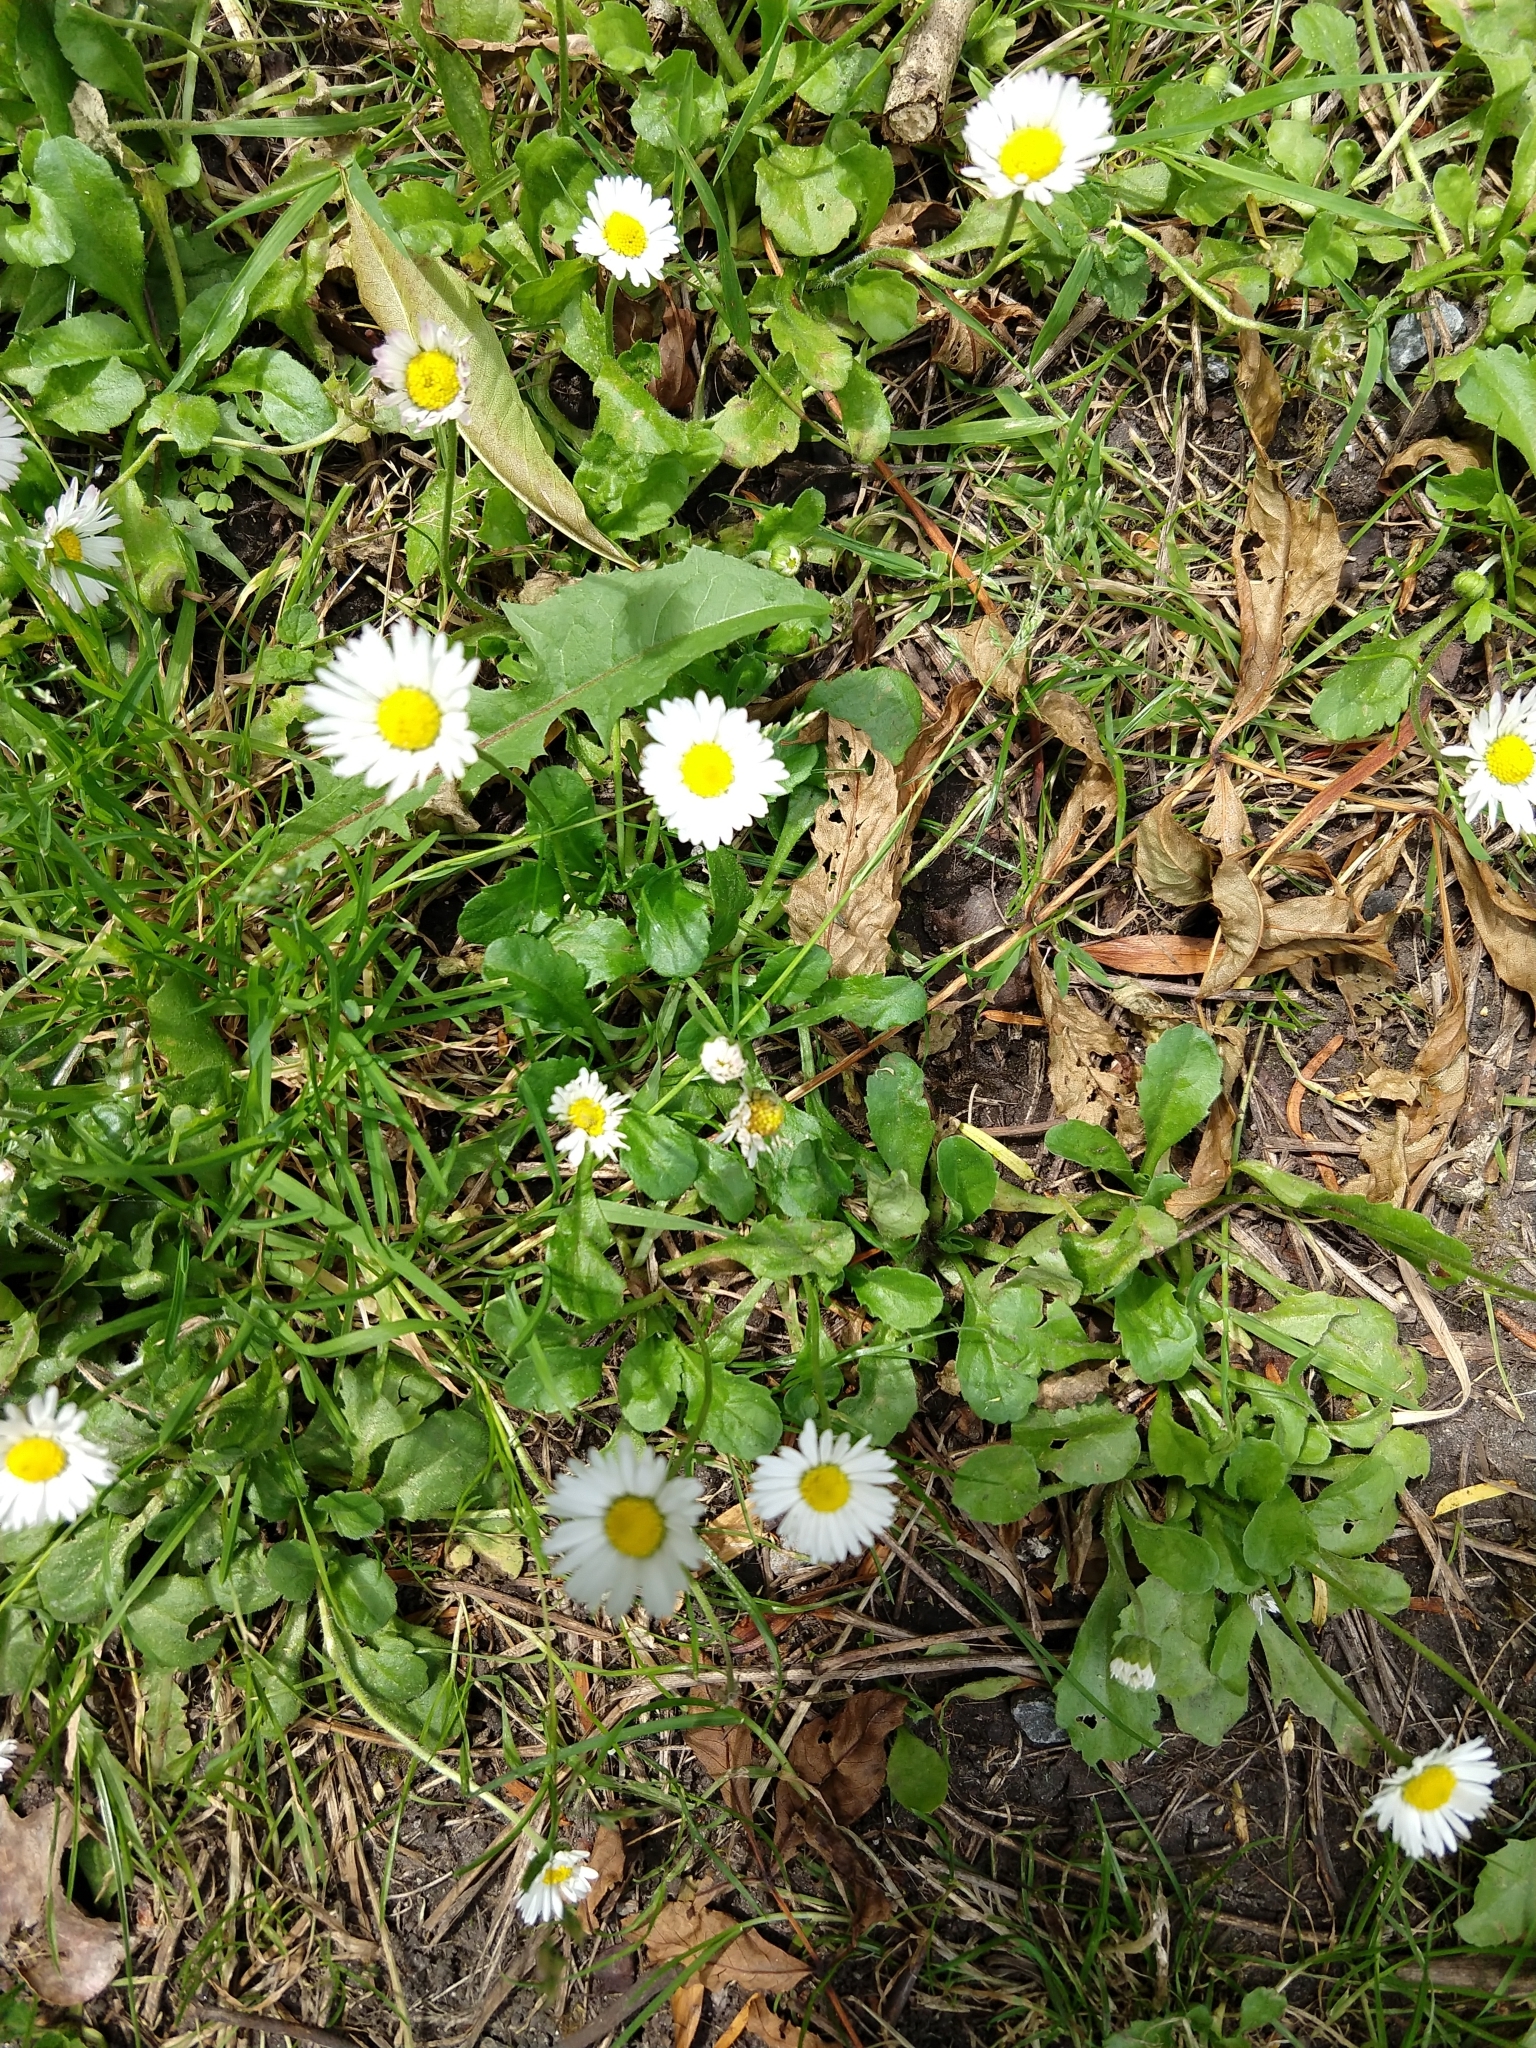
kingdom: Plantae
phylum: Tracheophyta
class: Magnoliopsida
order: Asterales
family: Asteraceae
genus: Bellis
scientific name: Bellis perennis
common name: Lawndaisy
